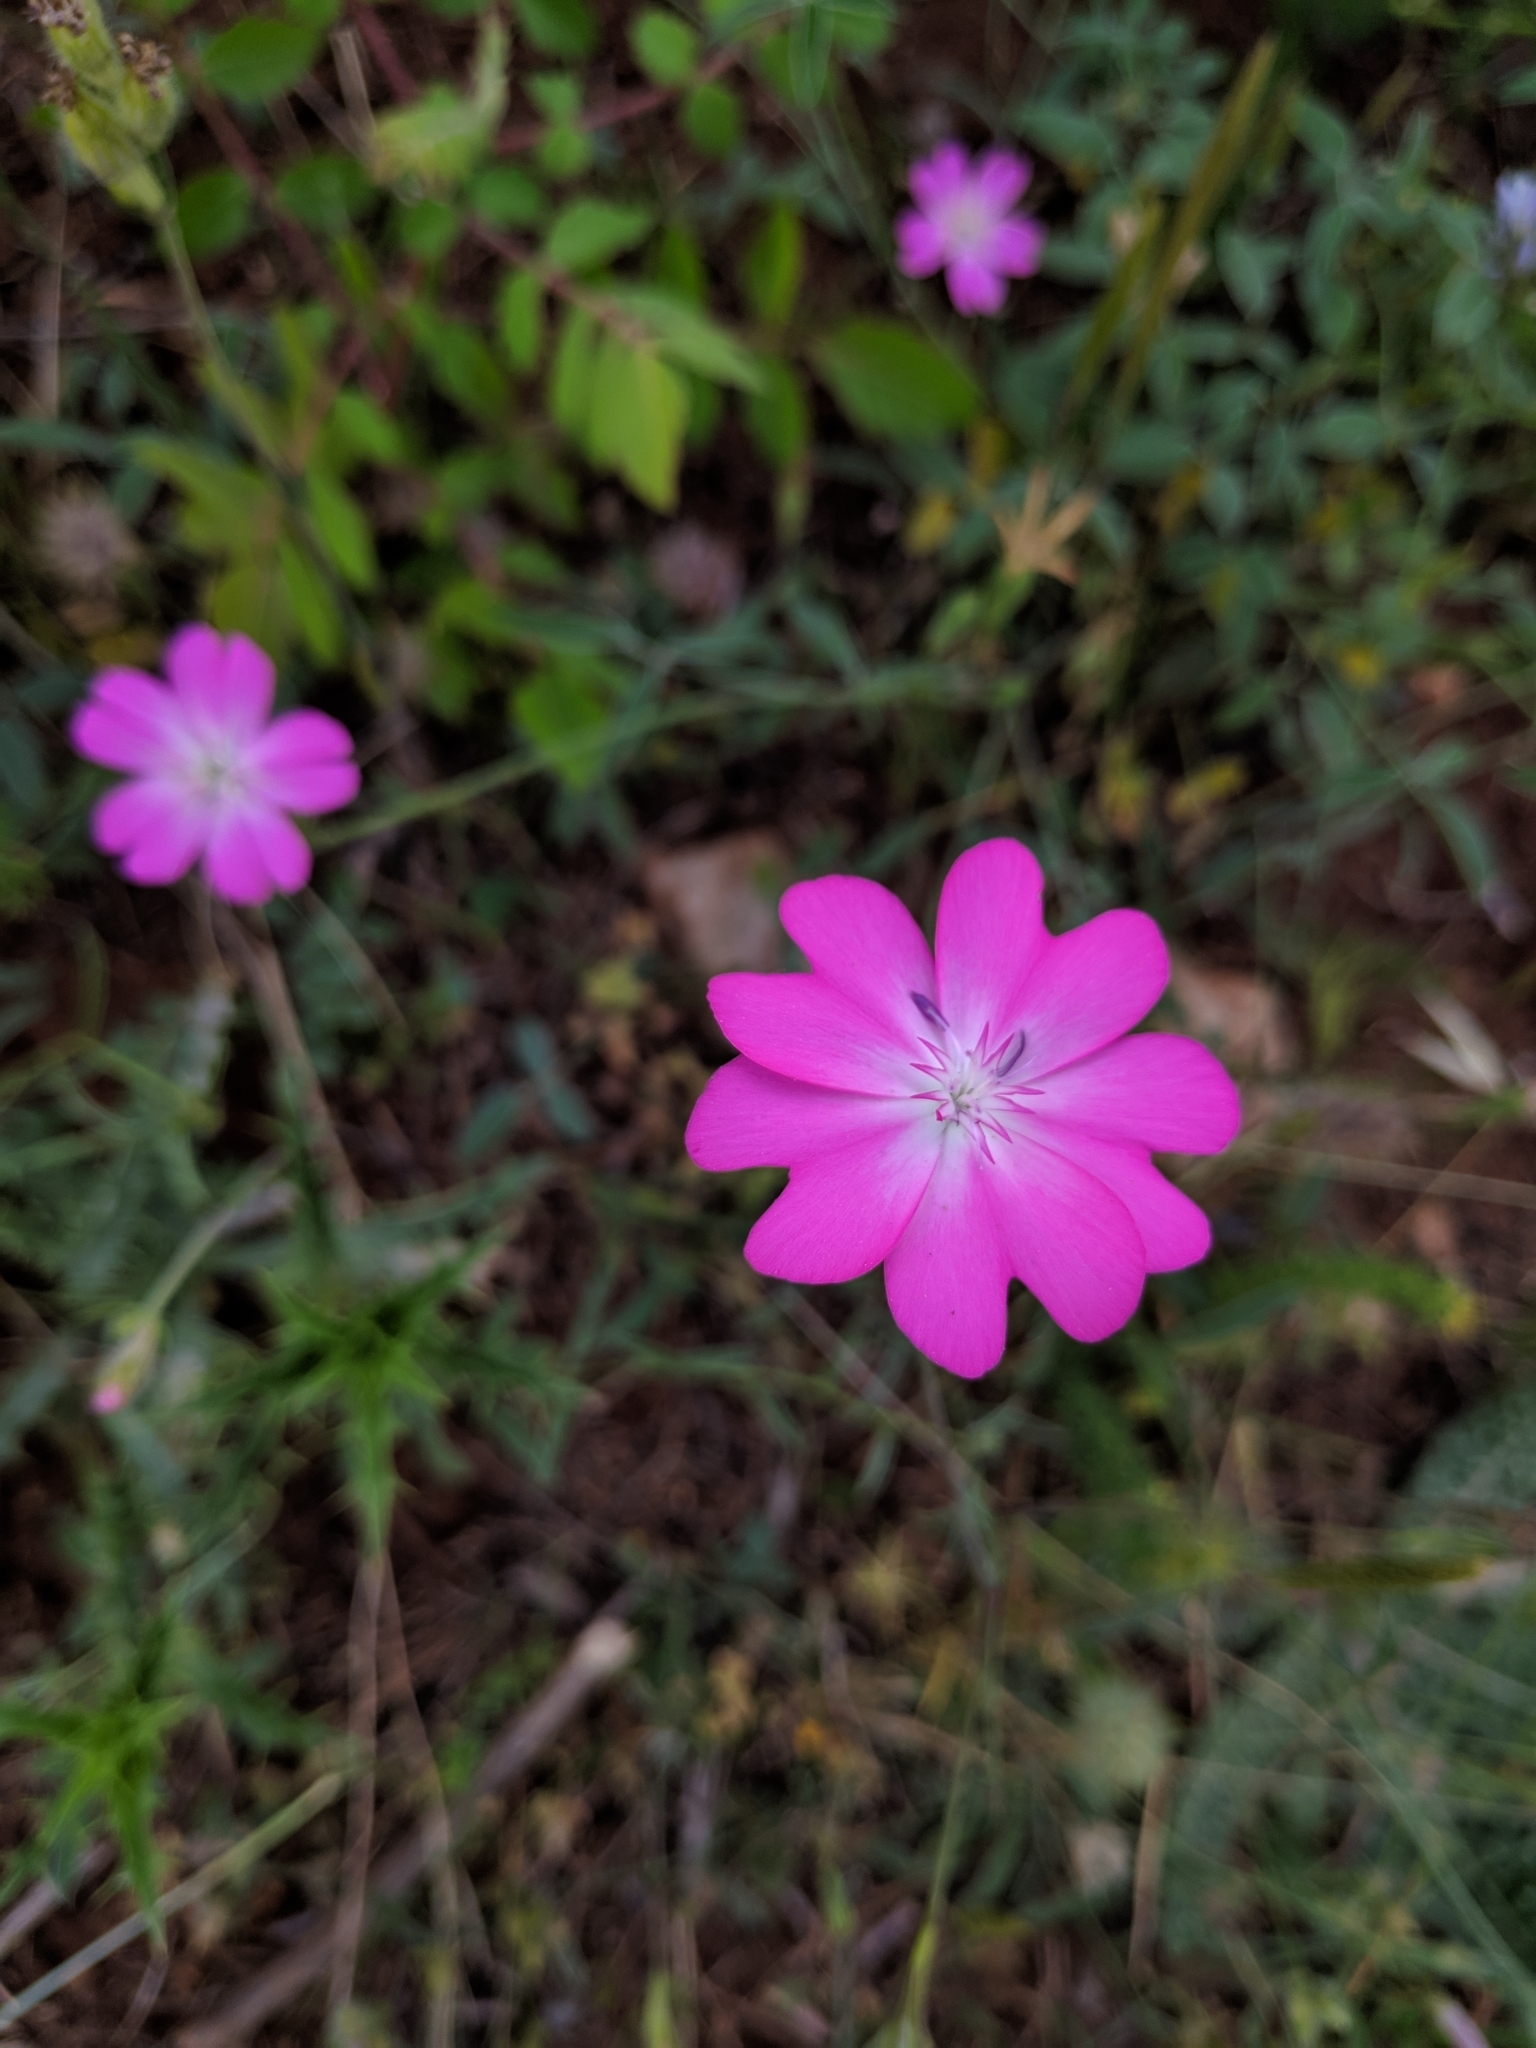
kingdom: Plantae
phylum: Tracheophyta
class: Magnoliopsida
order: Caryophyllales
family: Caryophyllaceae
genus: Eudianthe
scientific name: Eudianthe coeli-rosa
